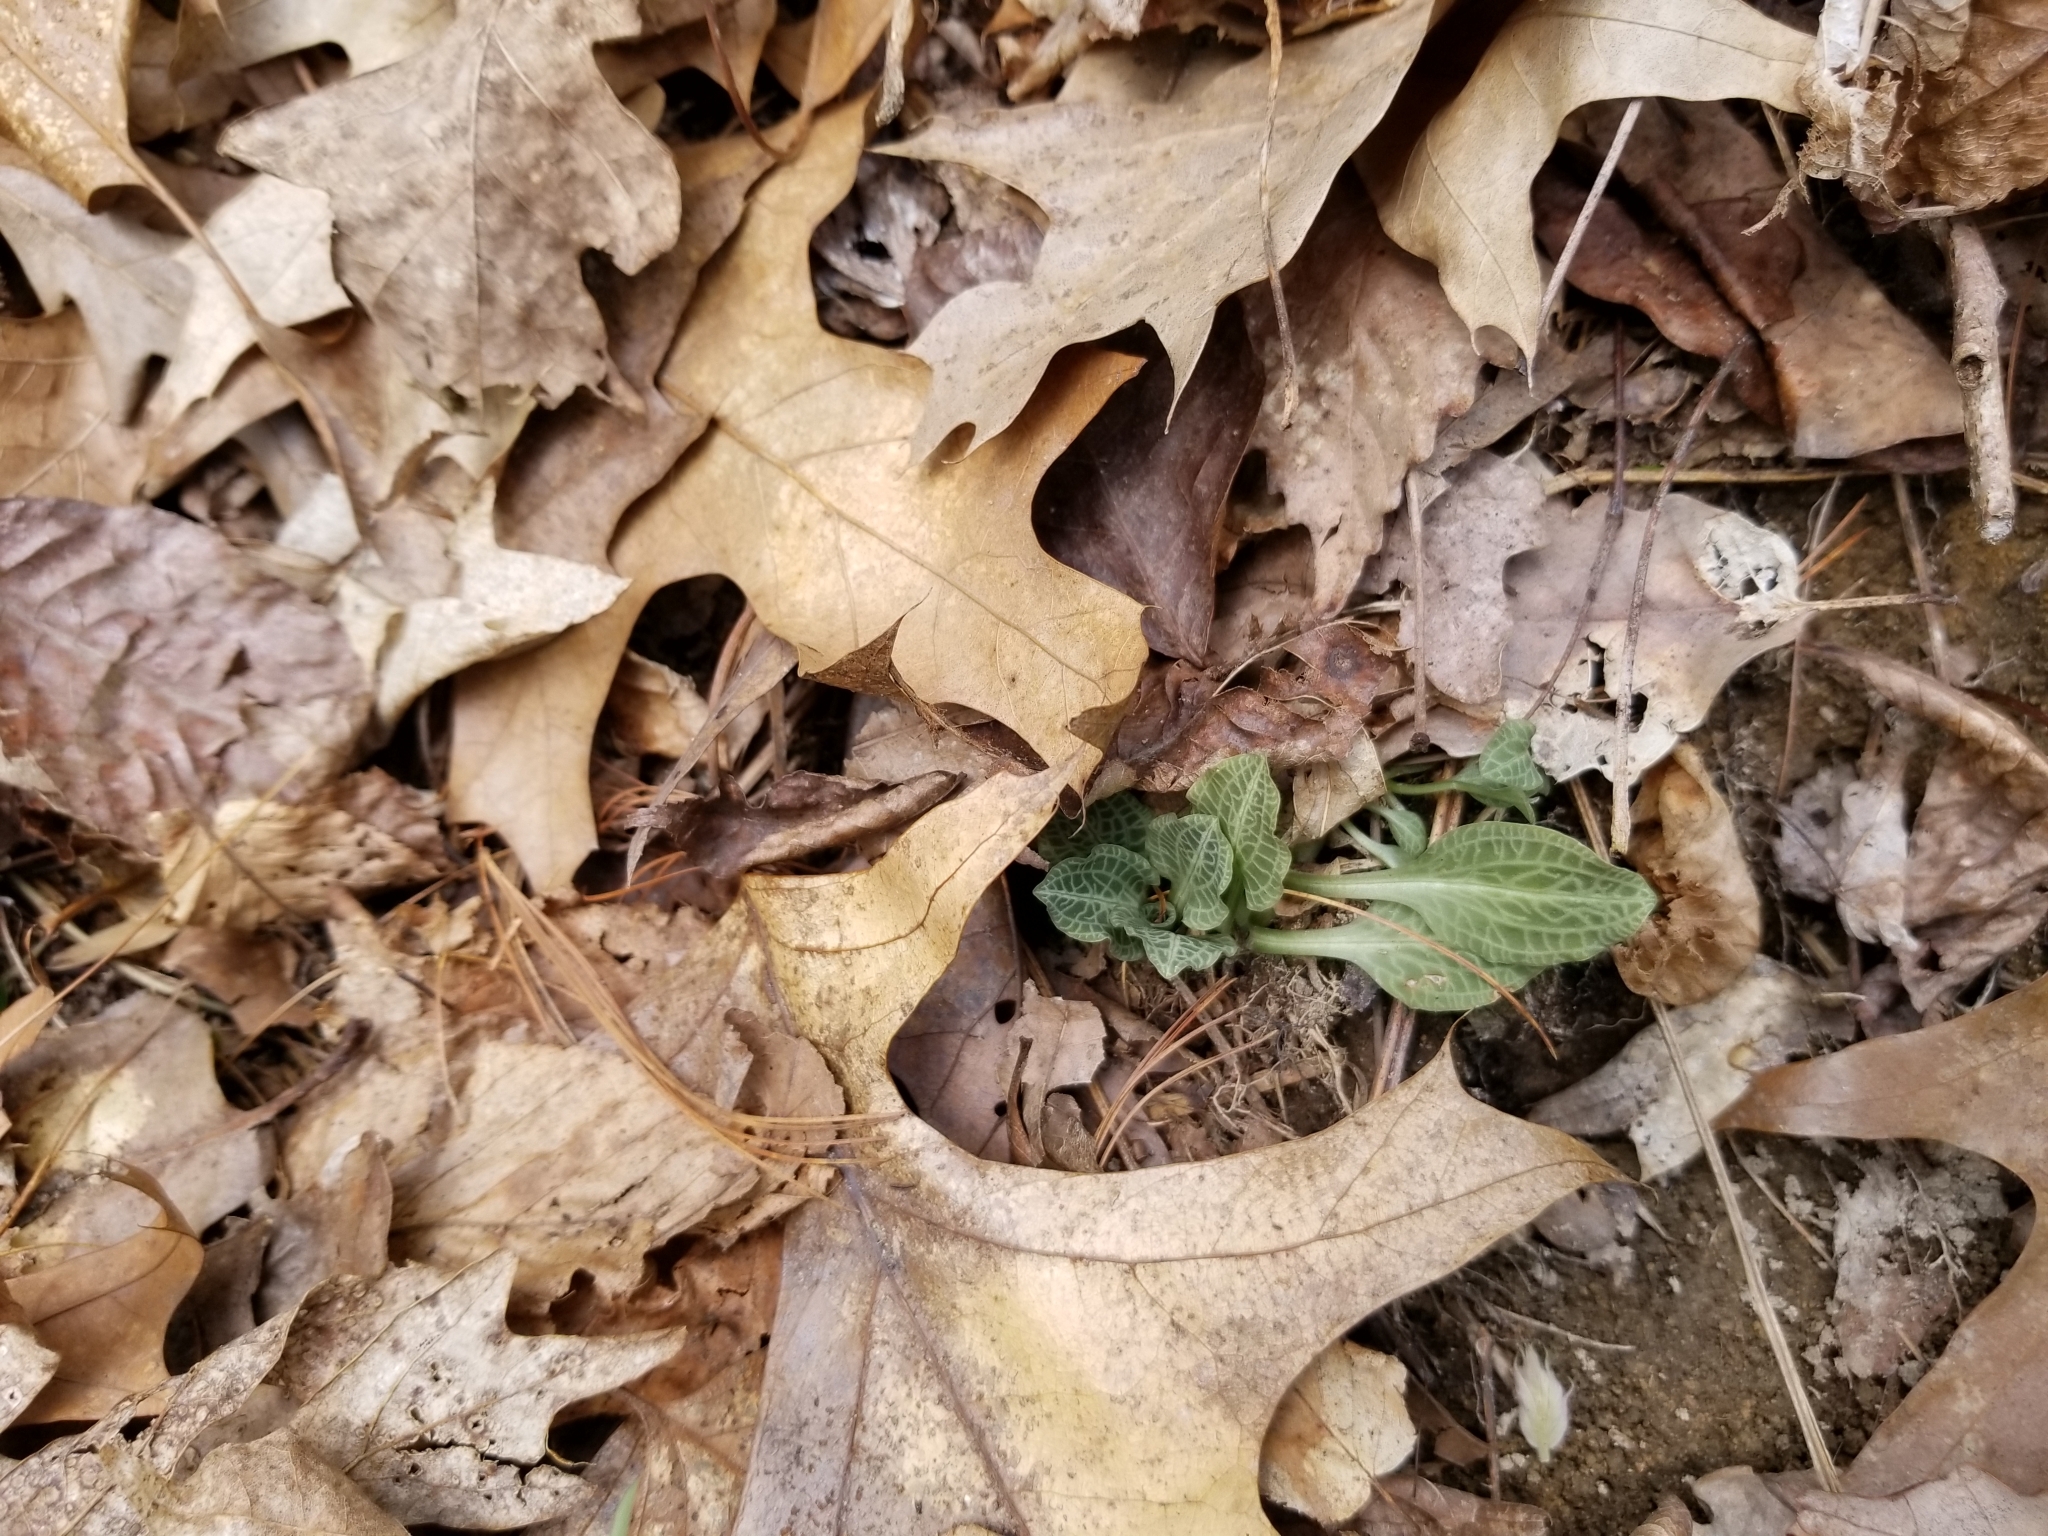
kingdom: Plantae
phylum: Tracheophyta
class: Liliopsida
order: Asparagales
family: Orchidaceae
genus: Goodyera
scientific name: Goodyera pubescens
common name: Downy rattlesnake-plantain
